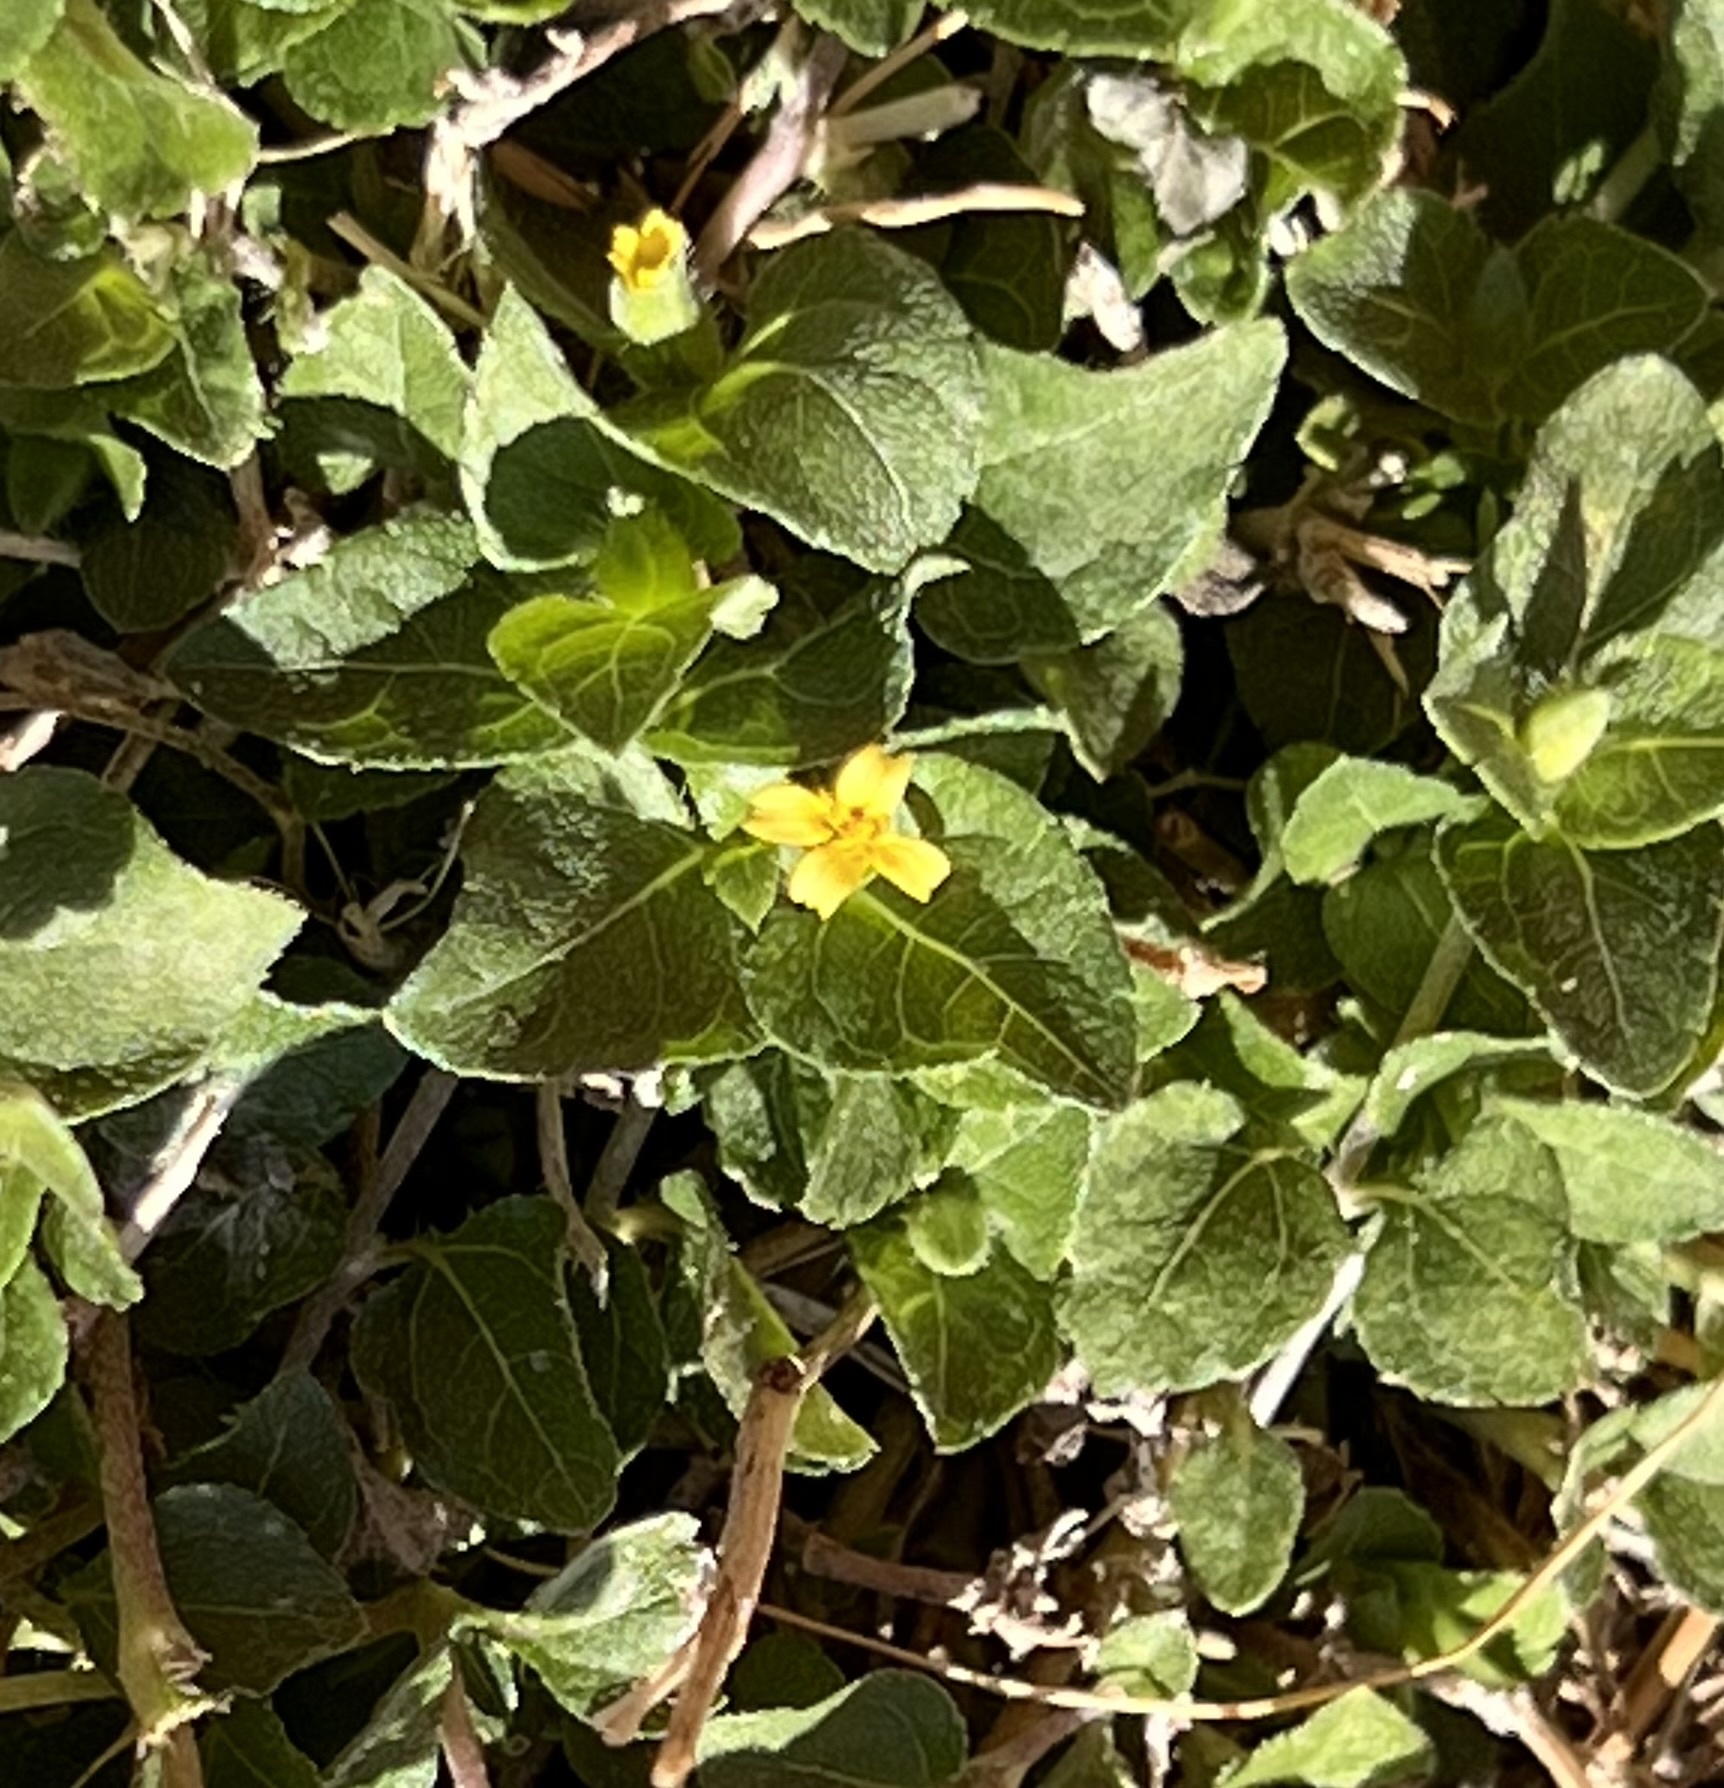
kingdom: Plantae
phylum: Tracheophyta
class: Magnoliopsida
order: Asterales
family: Asteraceae
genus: Calyptocarpus
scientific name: Calyptocarpus vialis
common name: Straggler daisy
